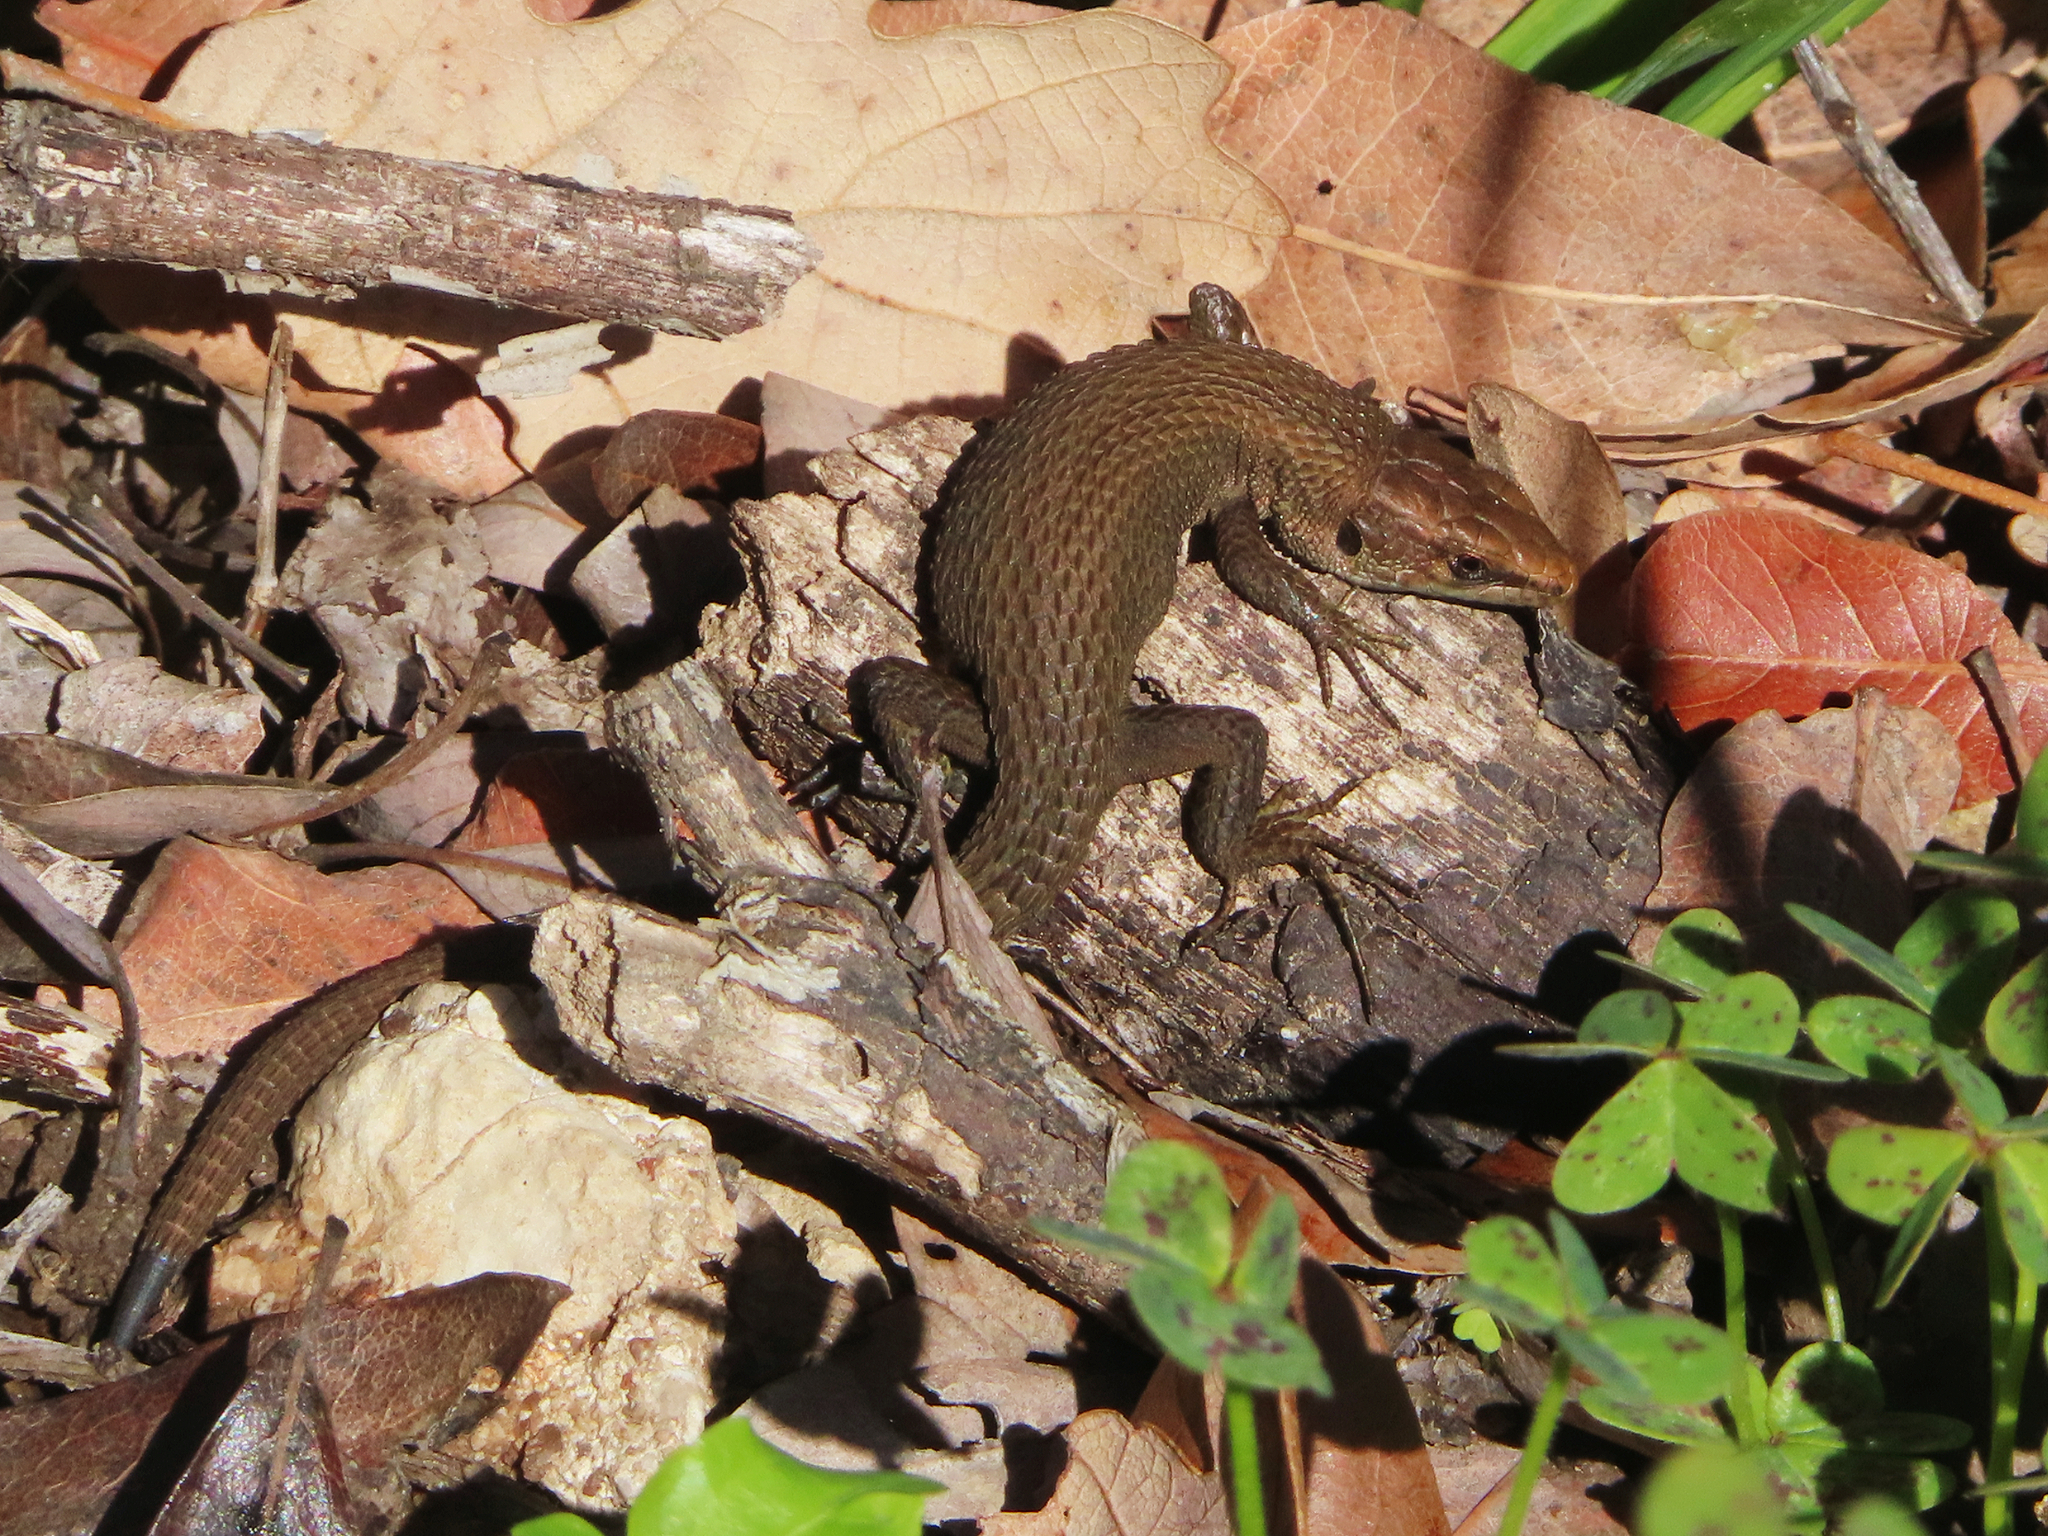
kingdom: Animalia
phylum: Chordata
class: Squamata
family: Lacertidae
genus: Algyroides
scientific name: Algyroides moreoticus
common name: Greek algyroides
